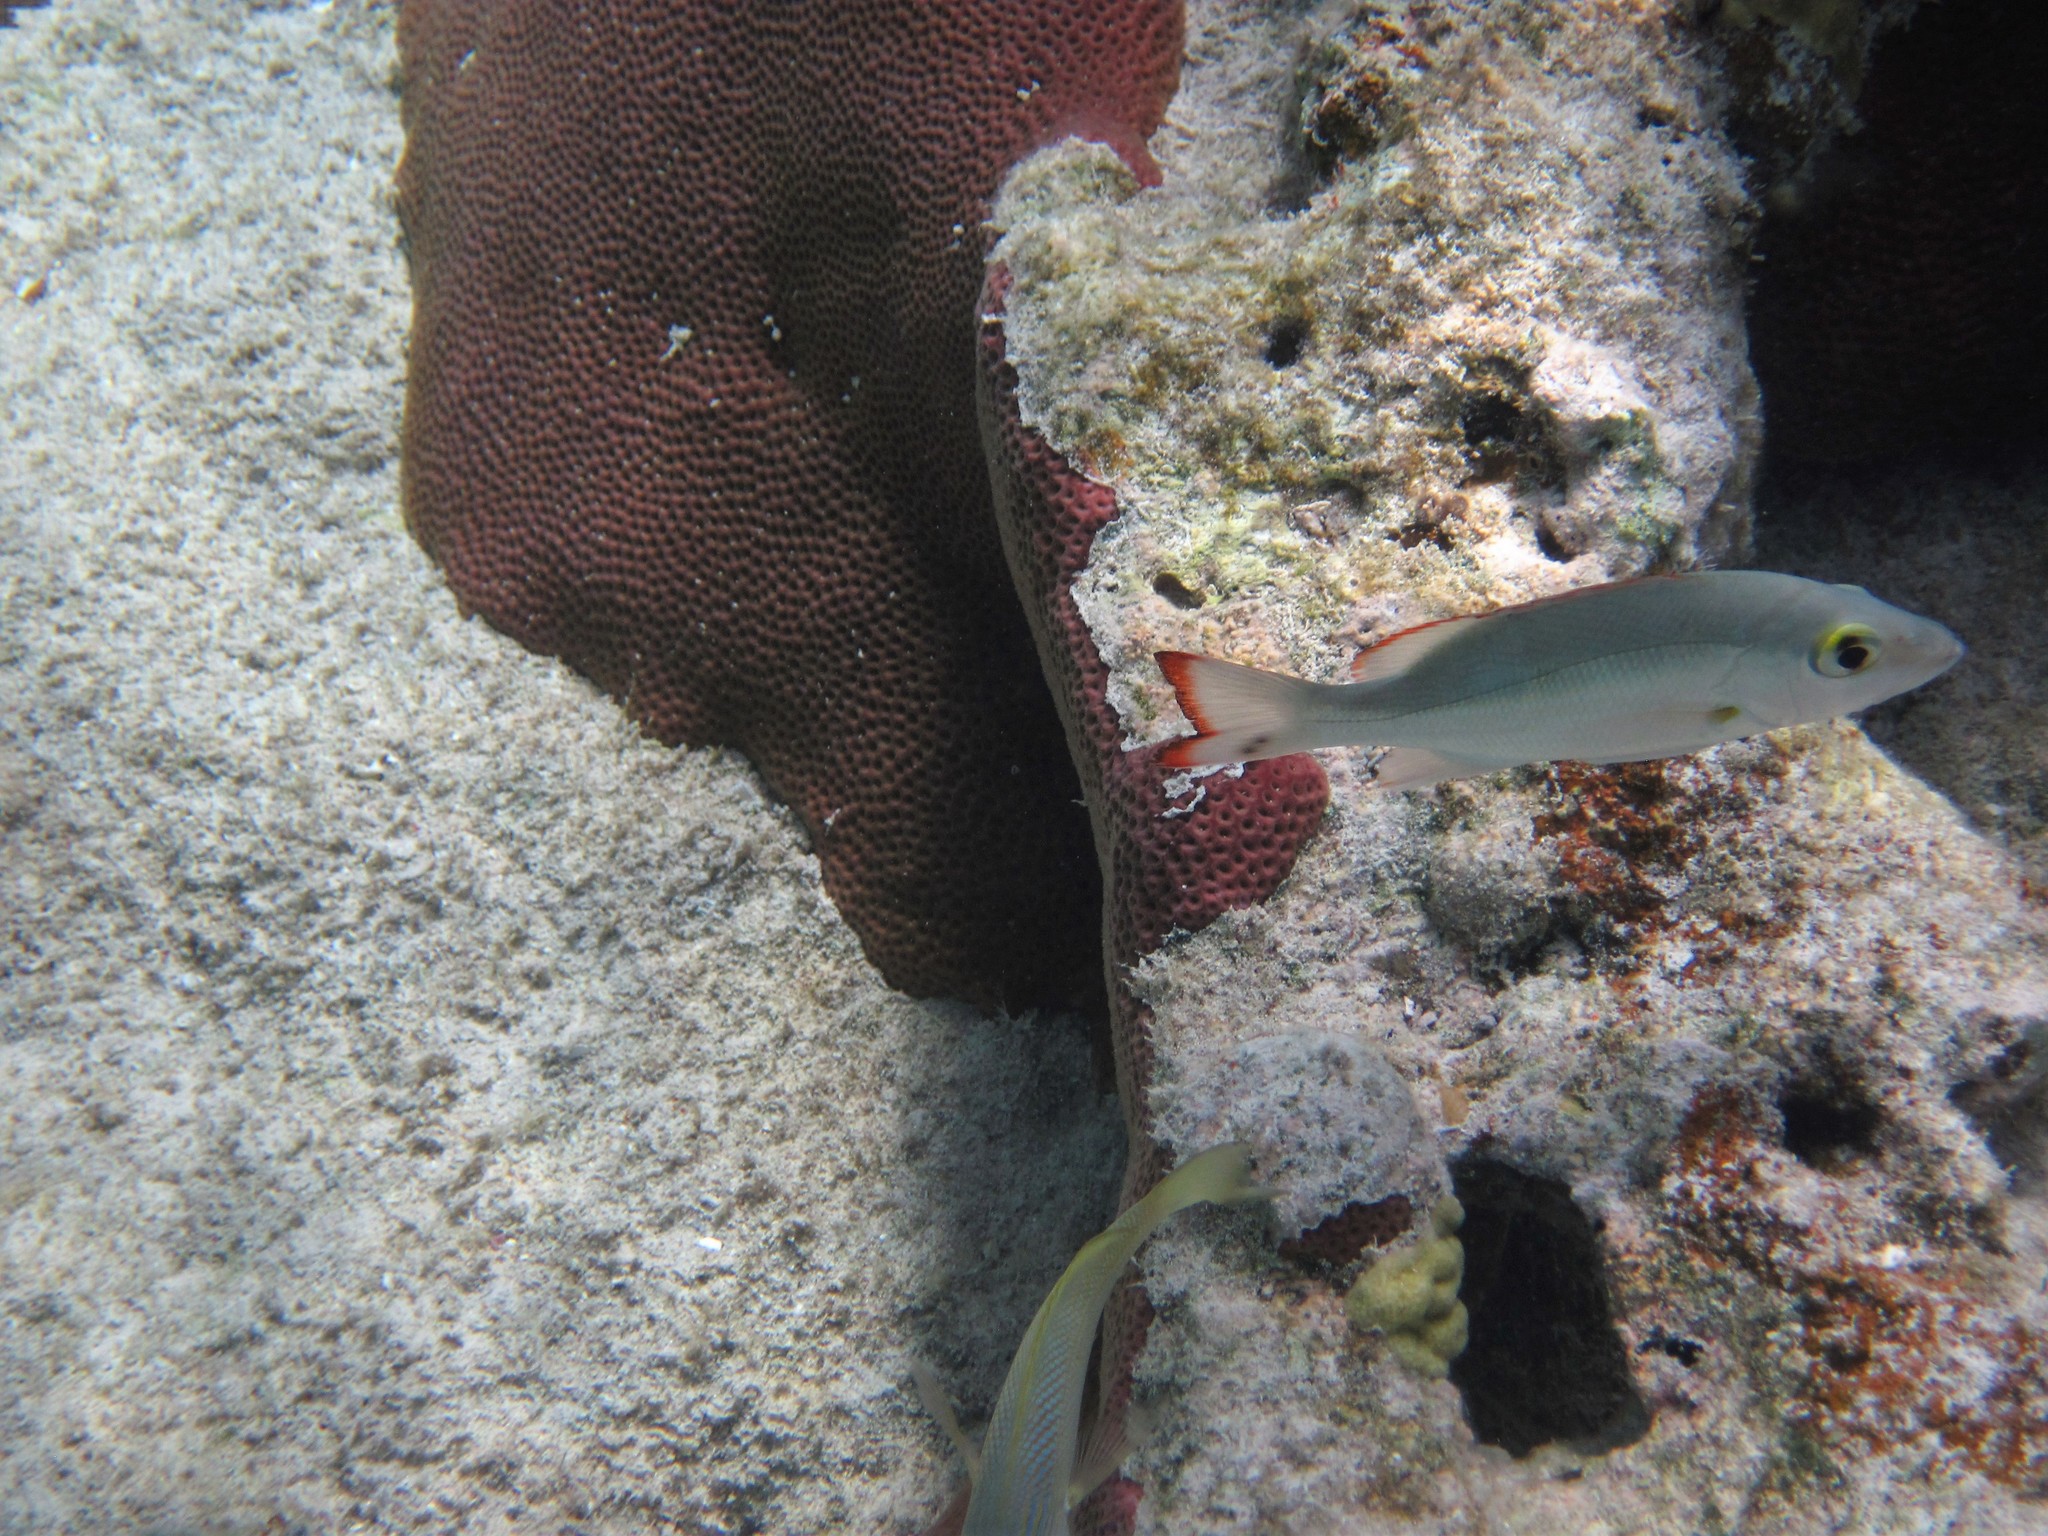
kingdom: Animalia
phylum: Chordata
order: Perciformes
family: Lutjanidae
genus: Lutjanus
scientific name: Lutjanus mahogoni
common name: Spot snapper
